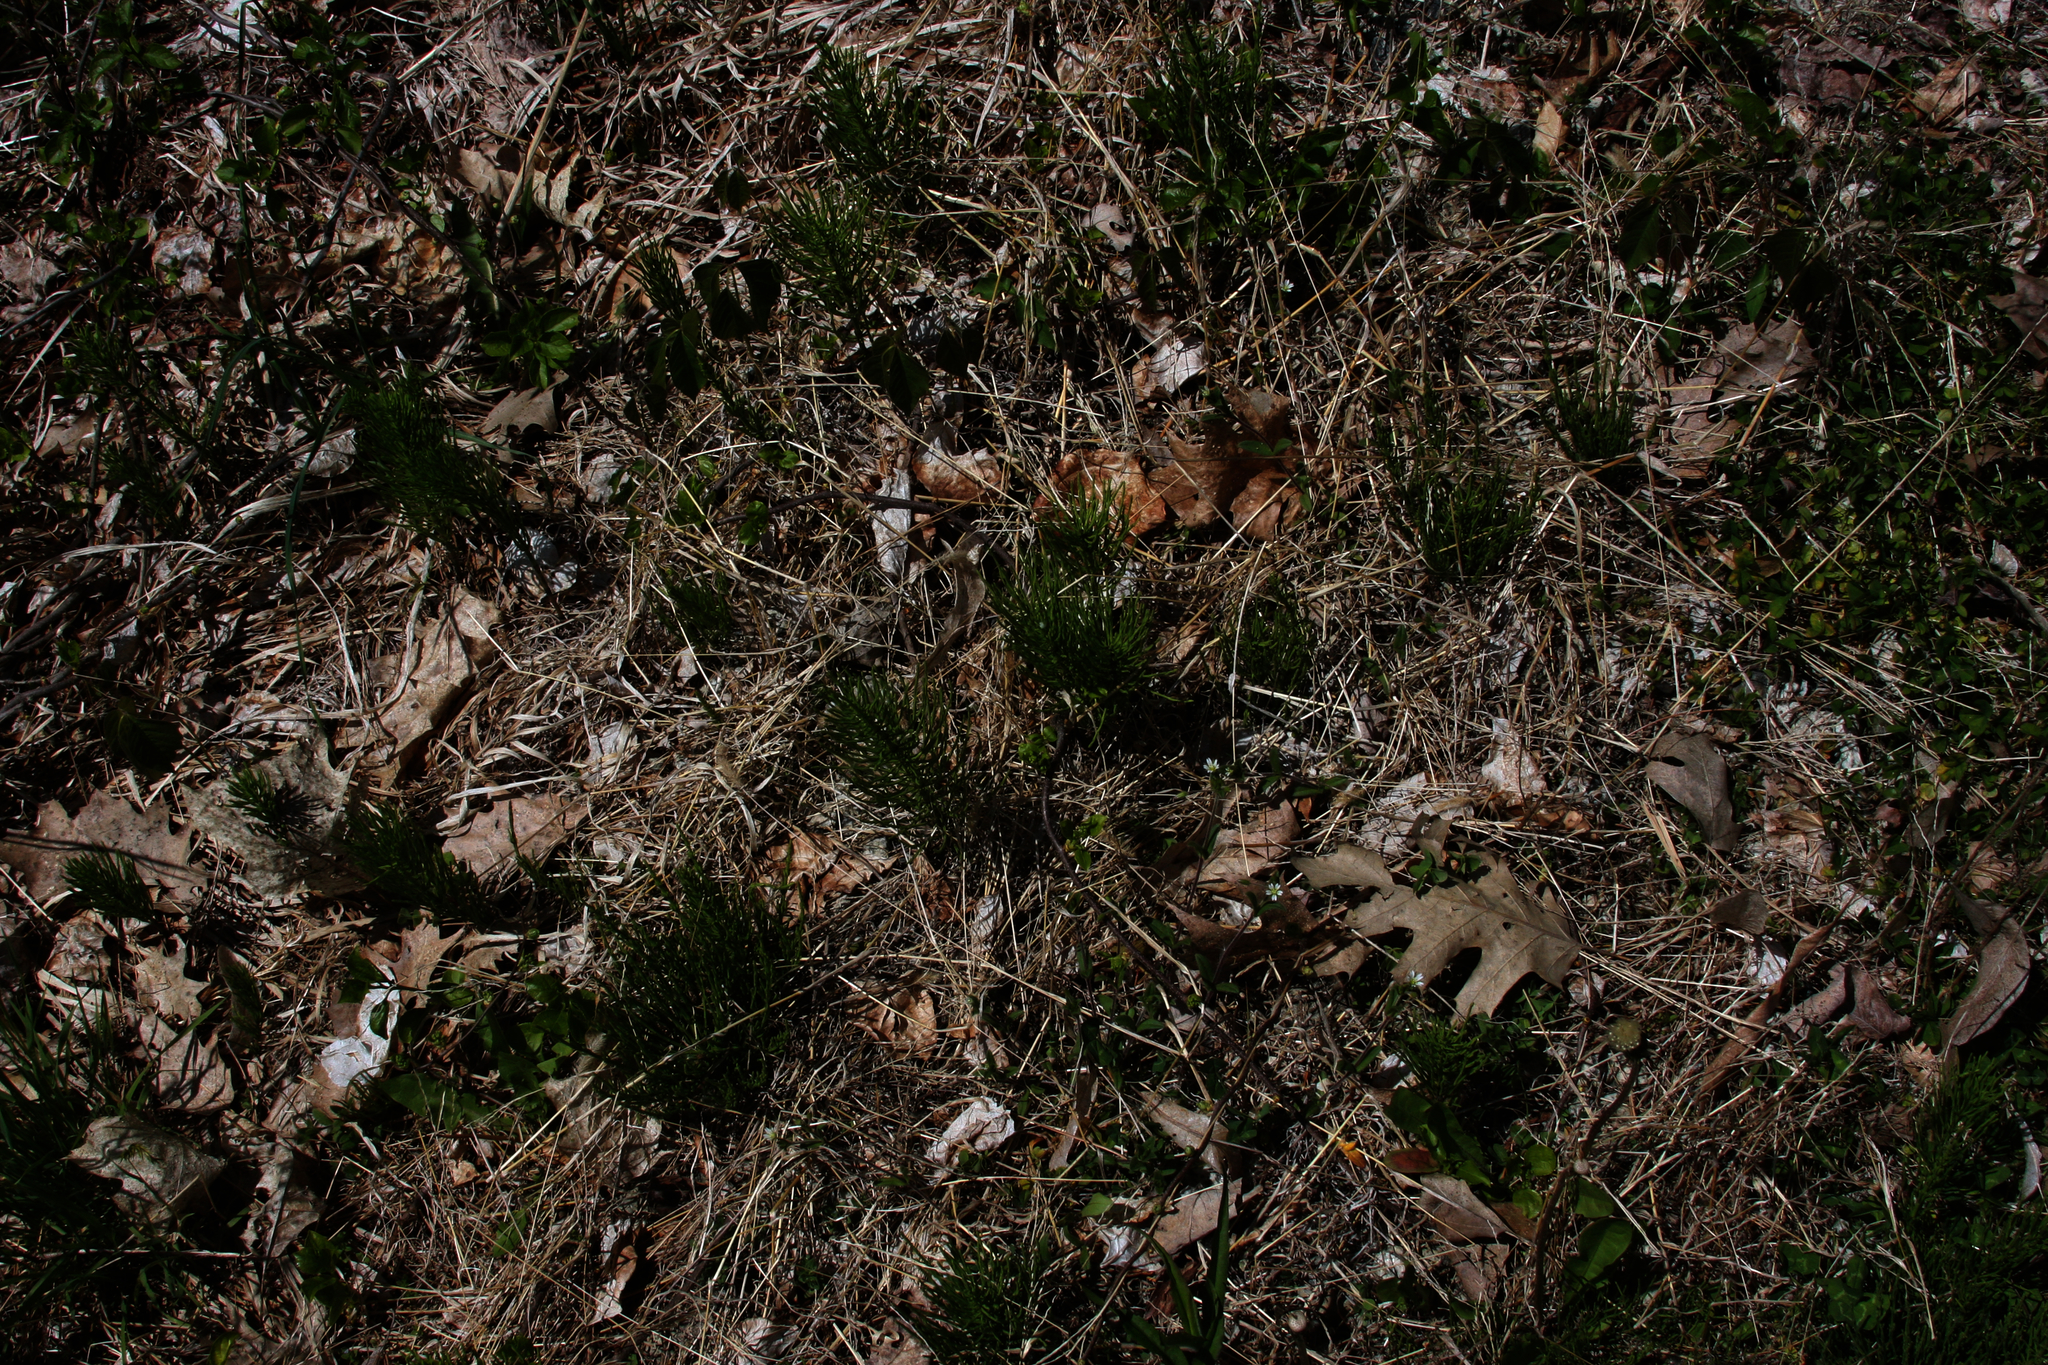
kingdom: Plantae
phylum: Tracheophyta
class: Polypodiopsida
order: Equisetales
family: Equisetaceae
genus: Equisetum
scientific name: Equisetum arvense
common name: Field horsetail
